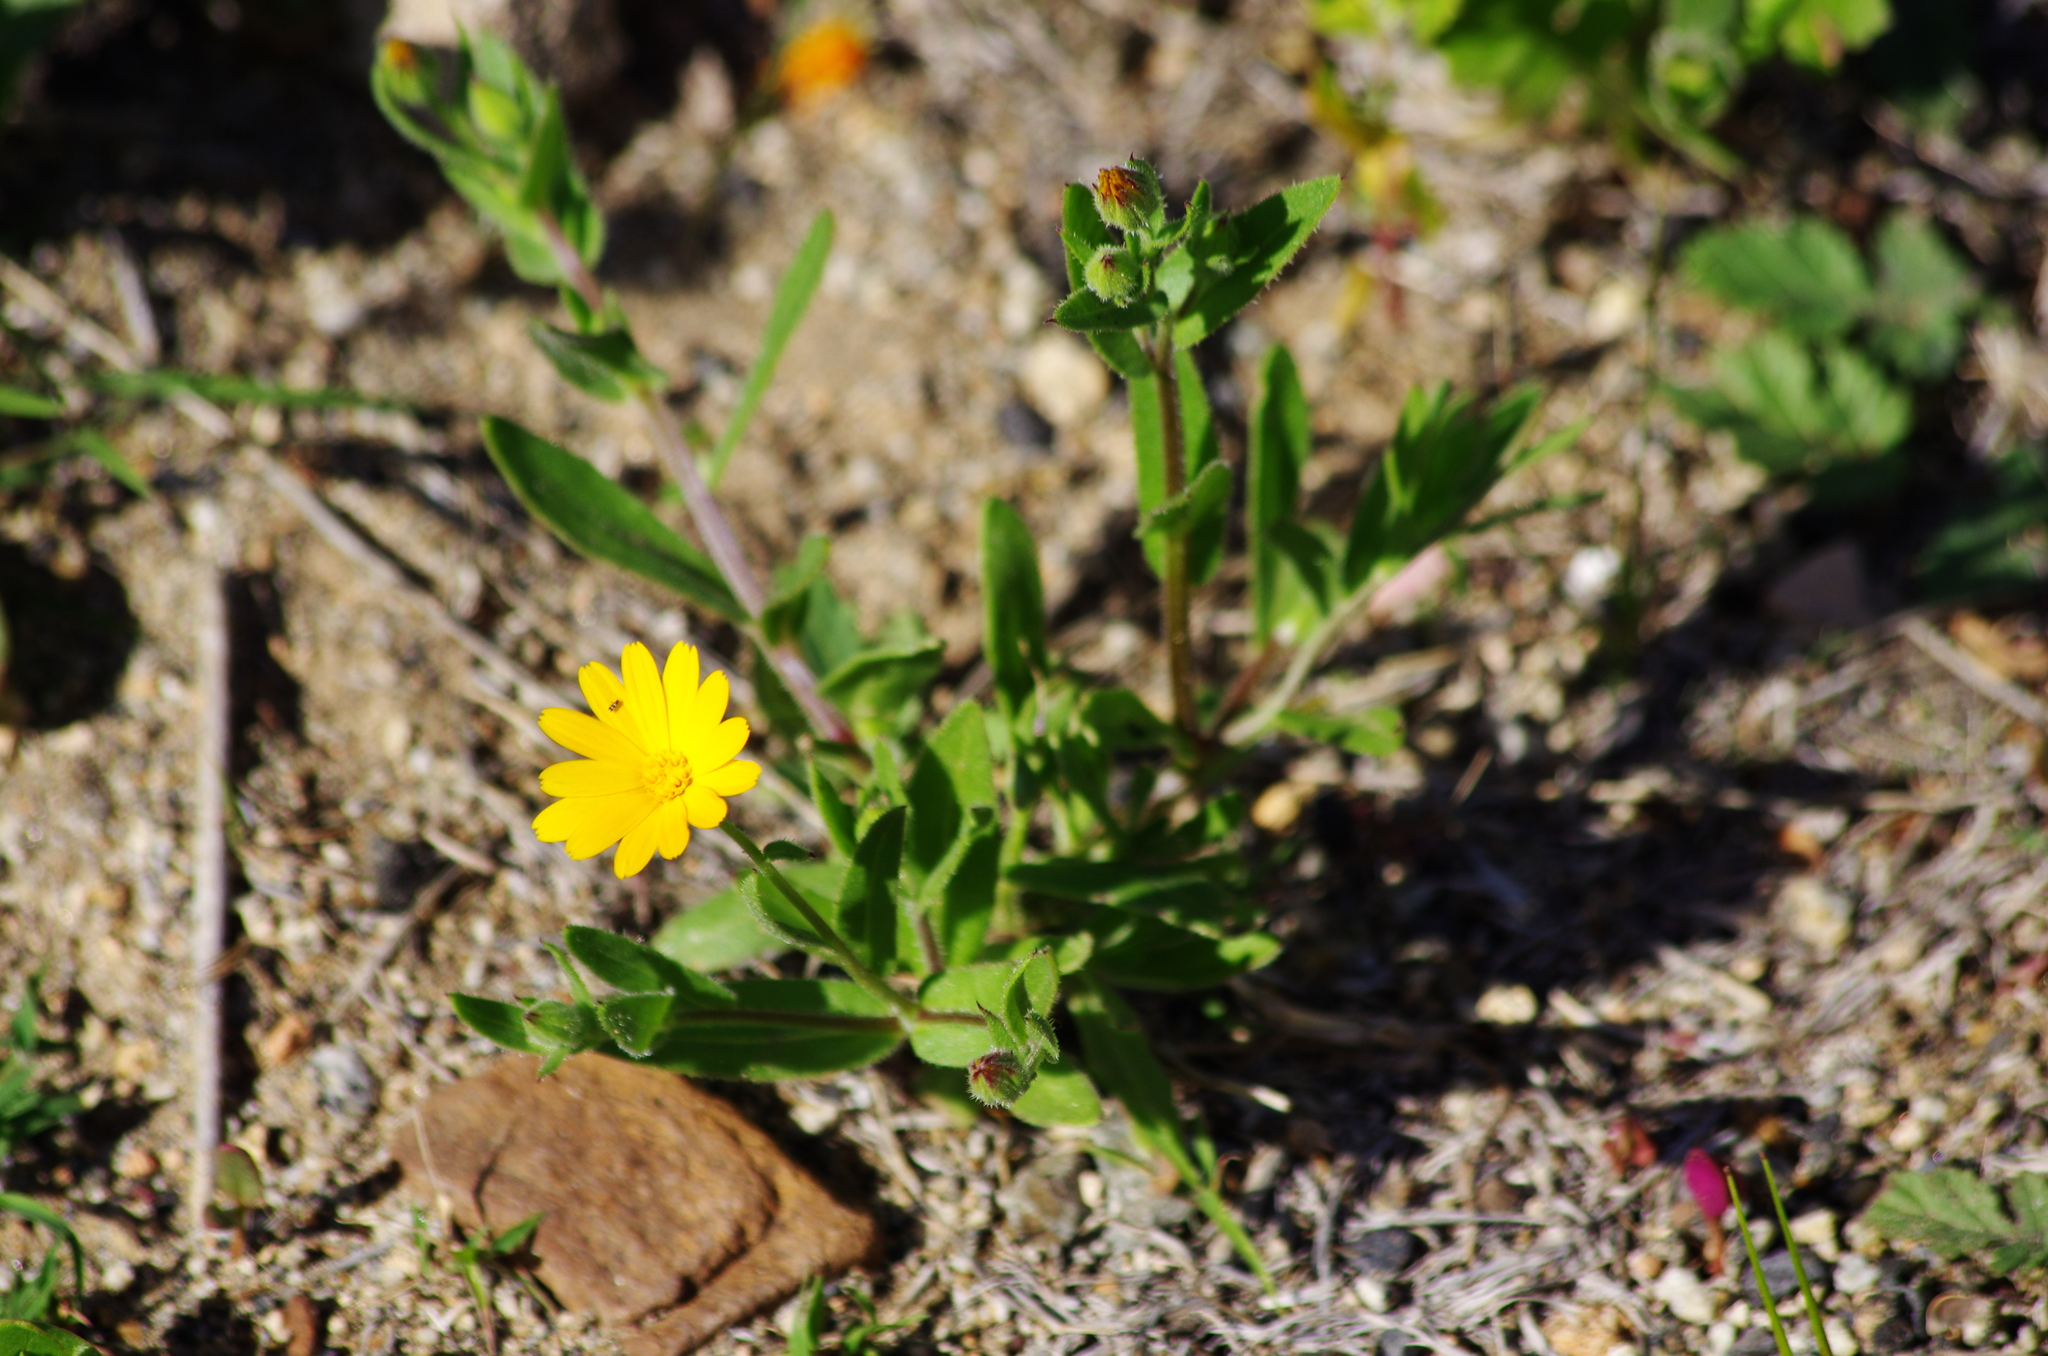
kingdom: Plantae
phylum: Tracheophyta
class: Magnoliopsida
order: Asterales
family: Asteraceae
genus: Calendula
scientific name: Calendula arvensis
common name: Field marigold
